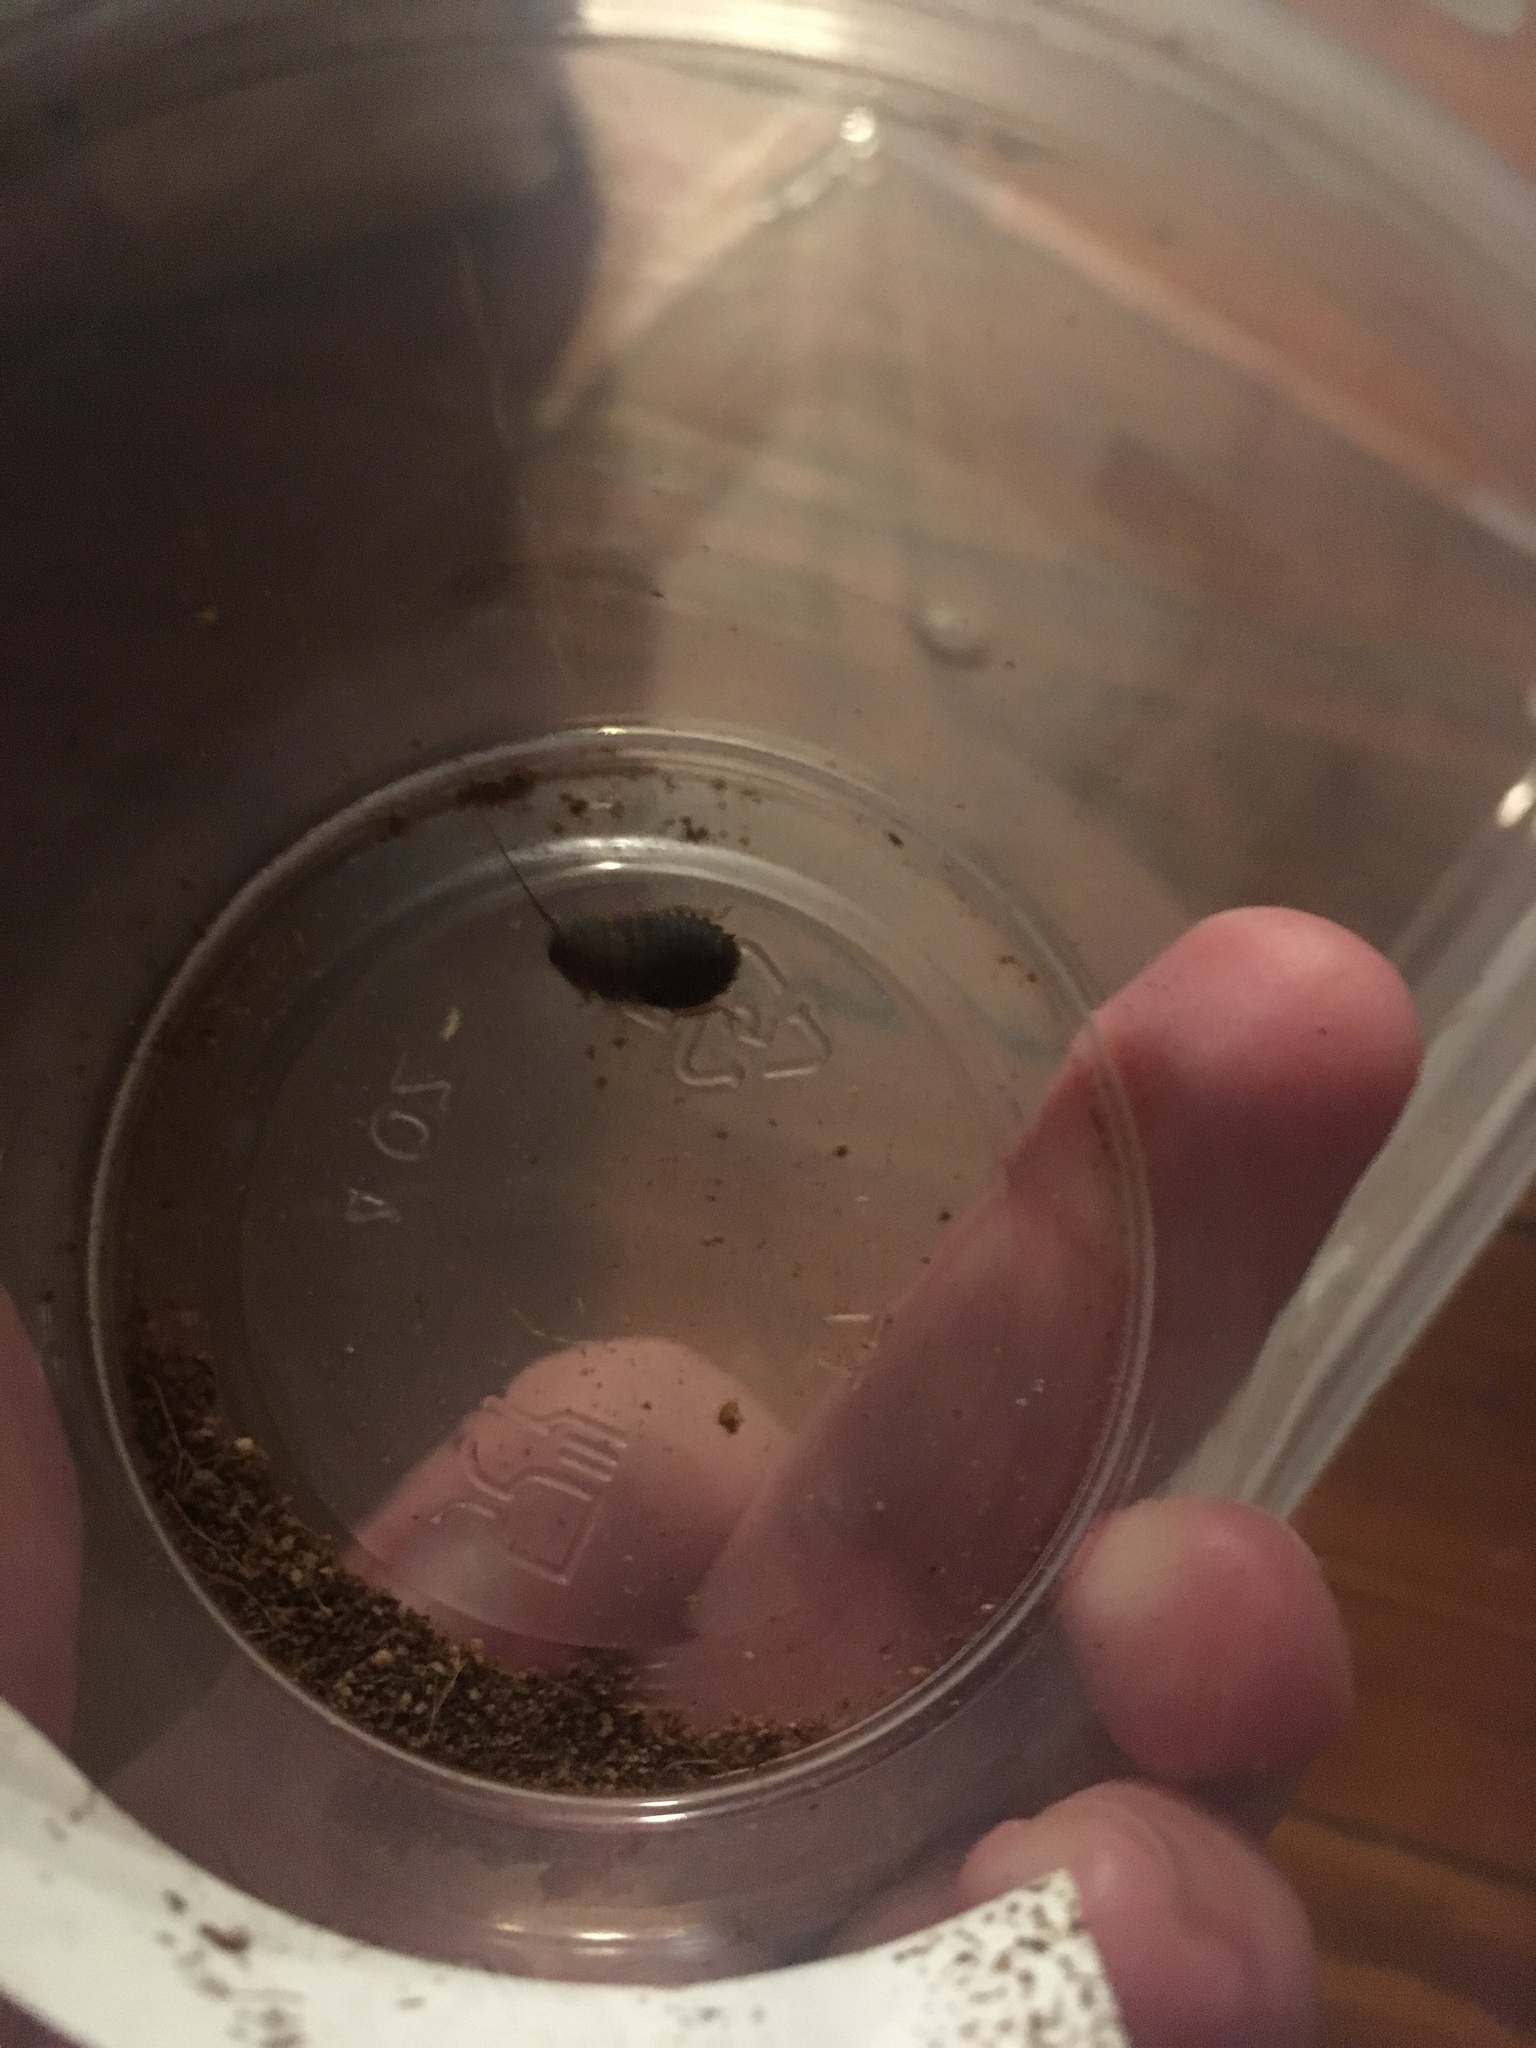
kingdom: Animalia
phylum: Arthropoda
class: Insecta
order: Blattodea
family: Blaberidae
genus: Rhyparobia
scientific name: Rhyparobia maderae
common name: Madeira cockroach
